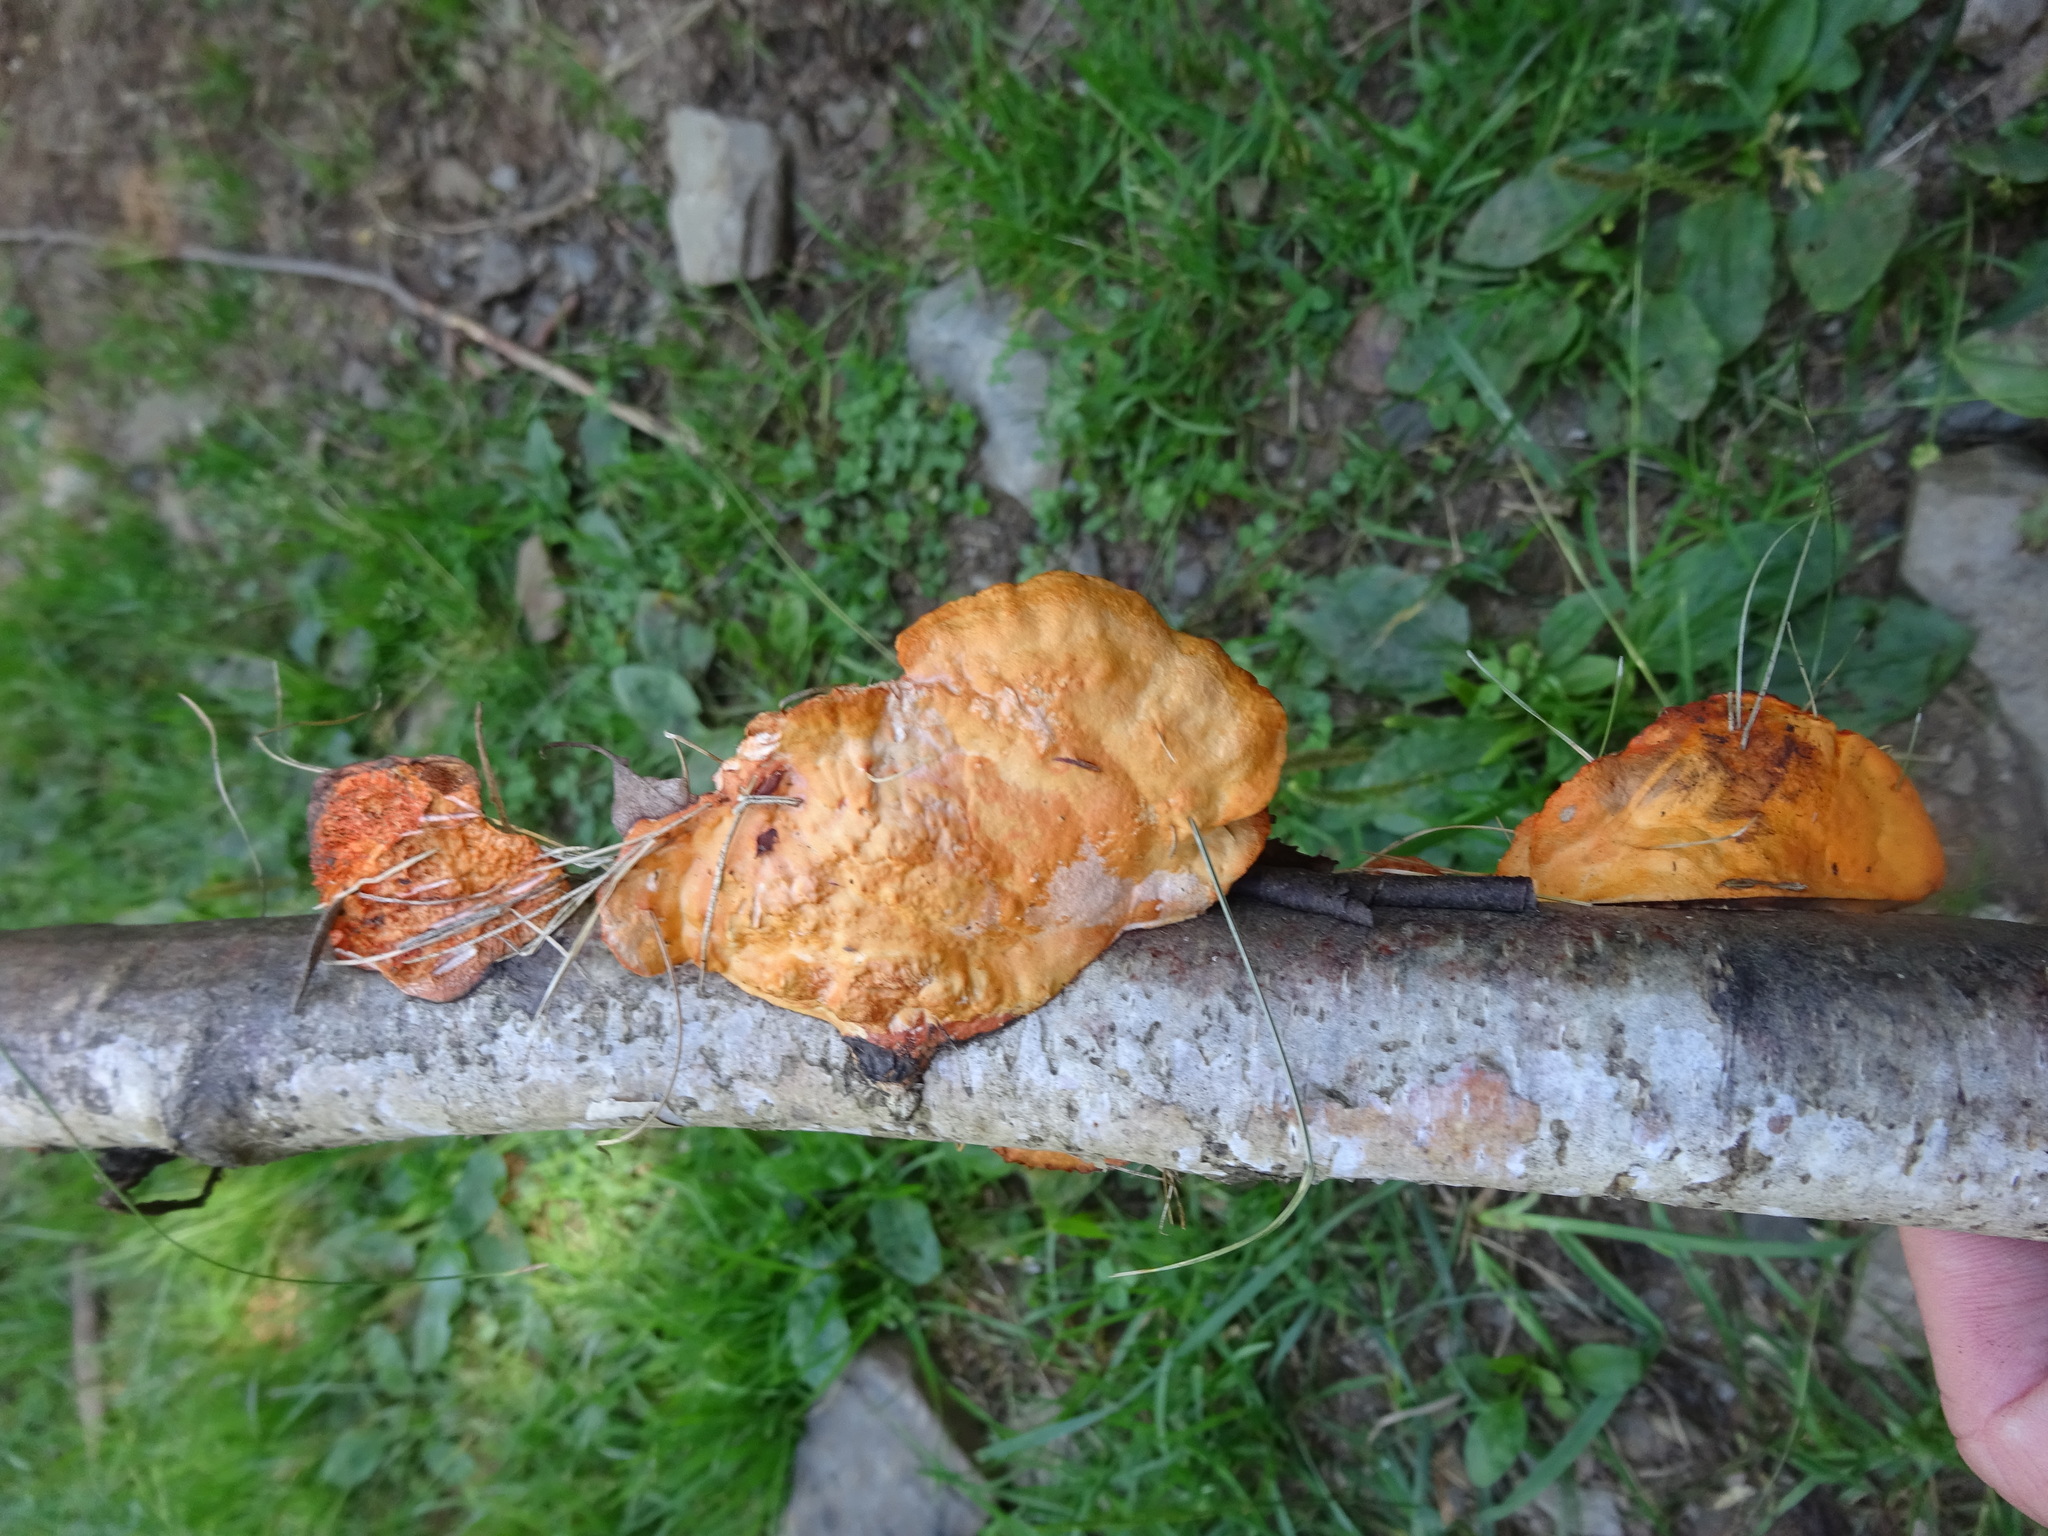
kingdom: Fungi
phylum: Basidiomycota
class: Agaricomycetes
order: Polyporales
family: Polyporaceae
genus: Trametes
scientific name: Trametes cinnabarina
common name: Northern cinnabar polypore
